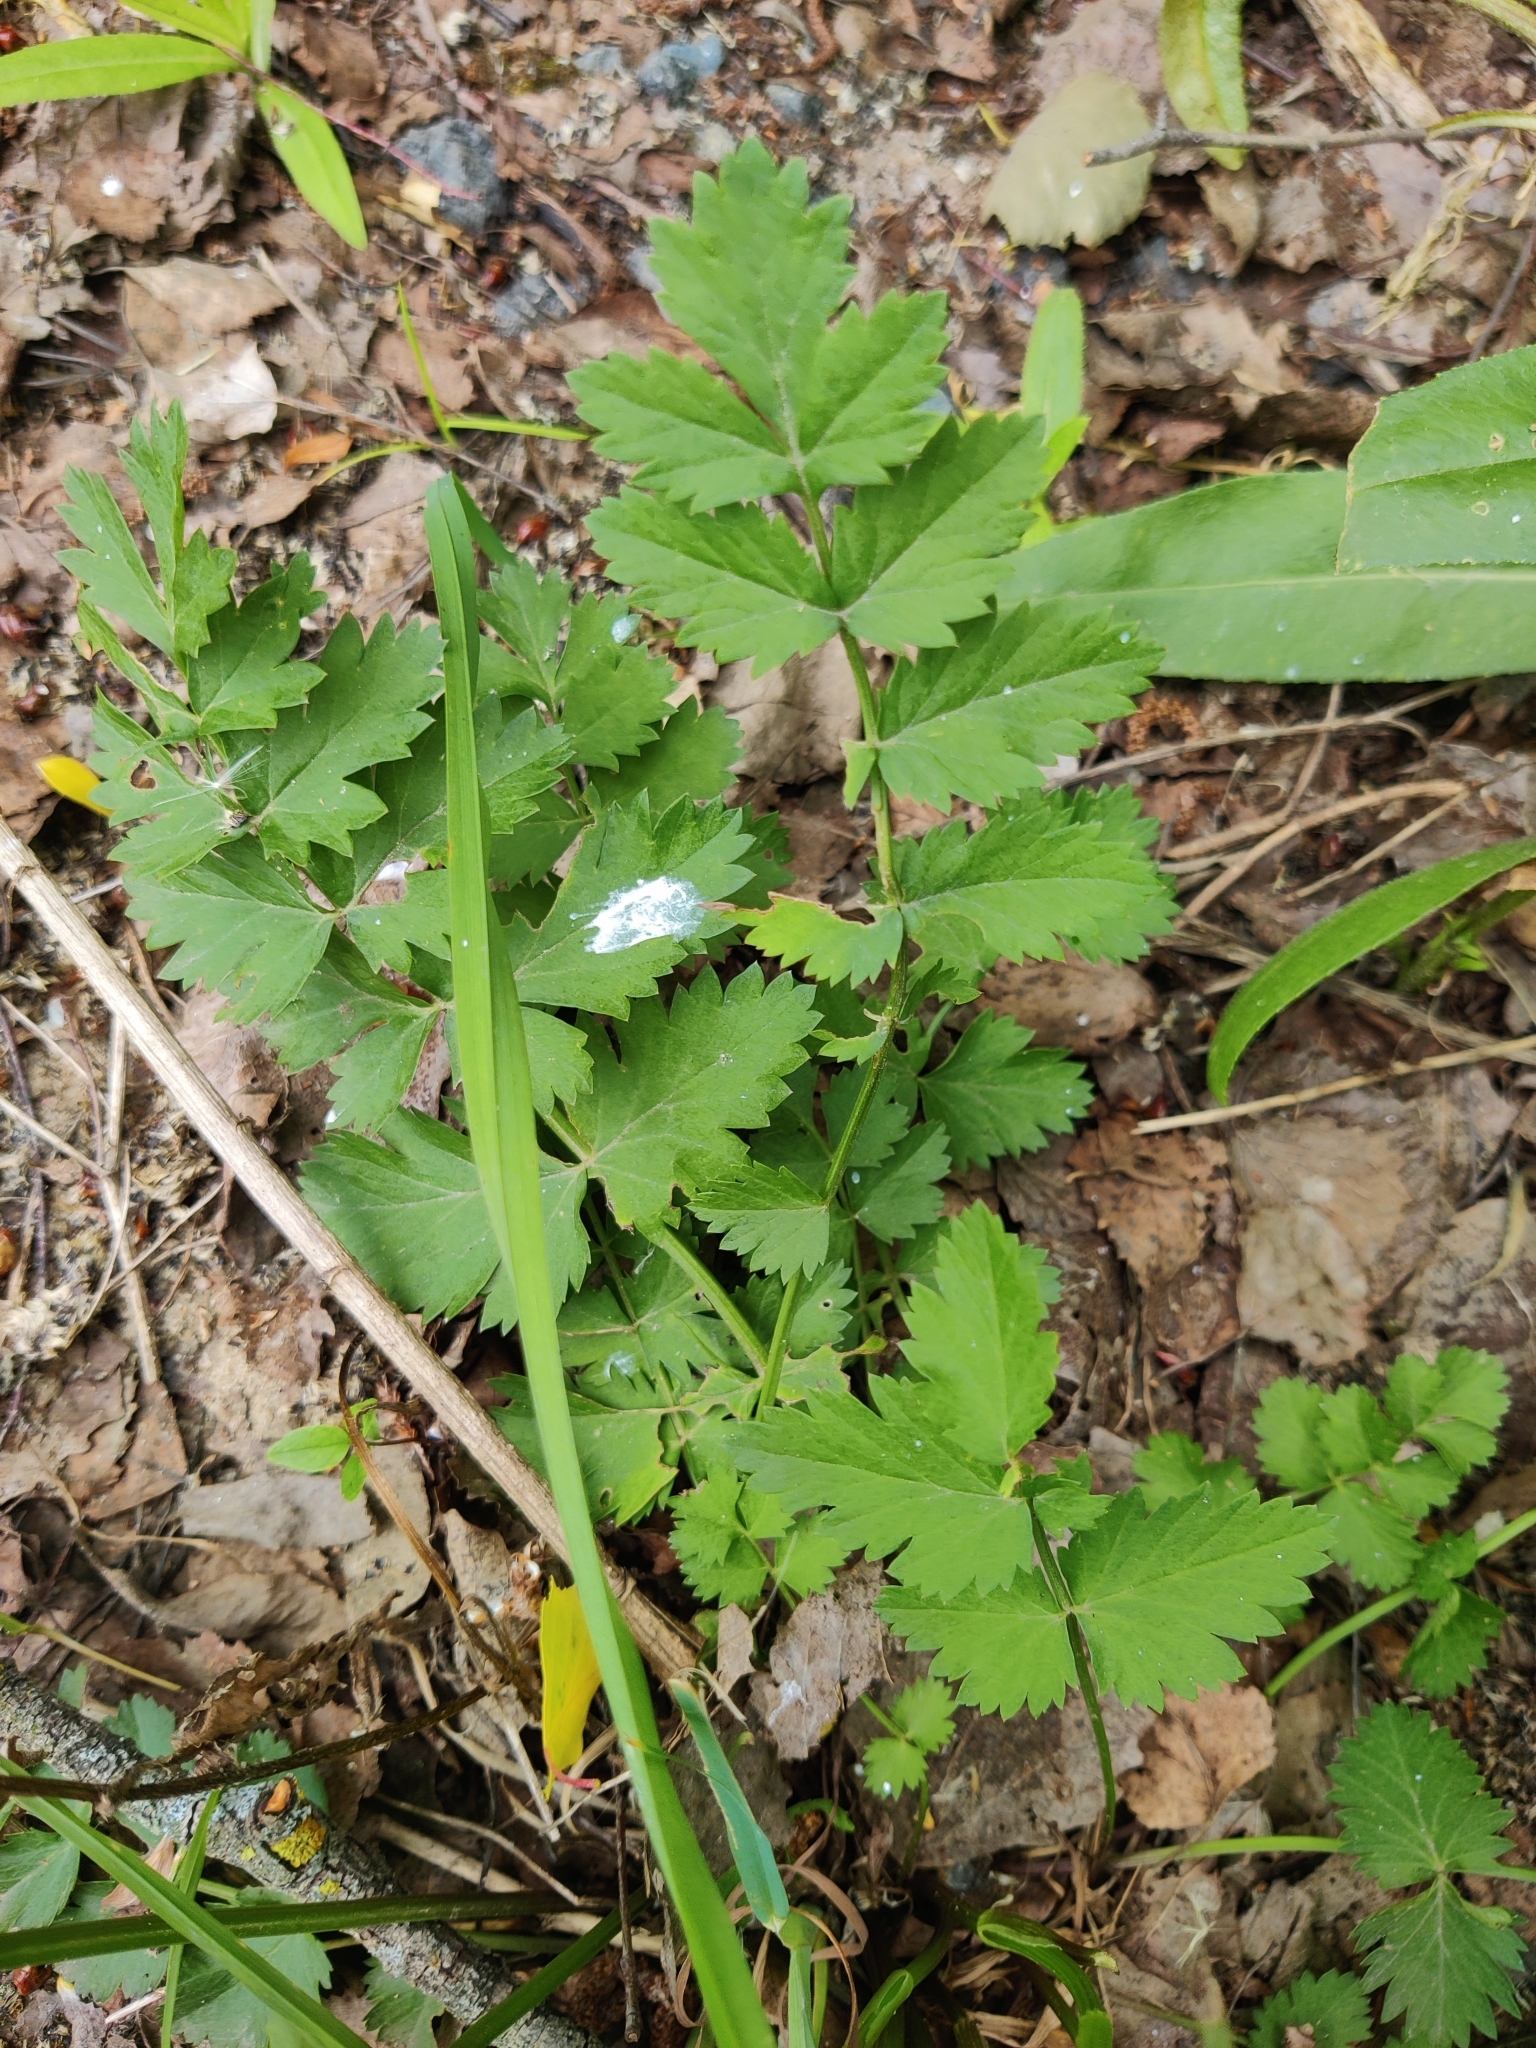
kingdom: Plantae
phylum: Tracheophyta
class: Magnoliopsida
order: Apiales
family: Apiaceae
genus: Pimpinella
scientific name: Pimpinella saxifraga
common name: Burnet-saxifrage
